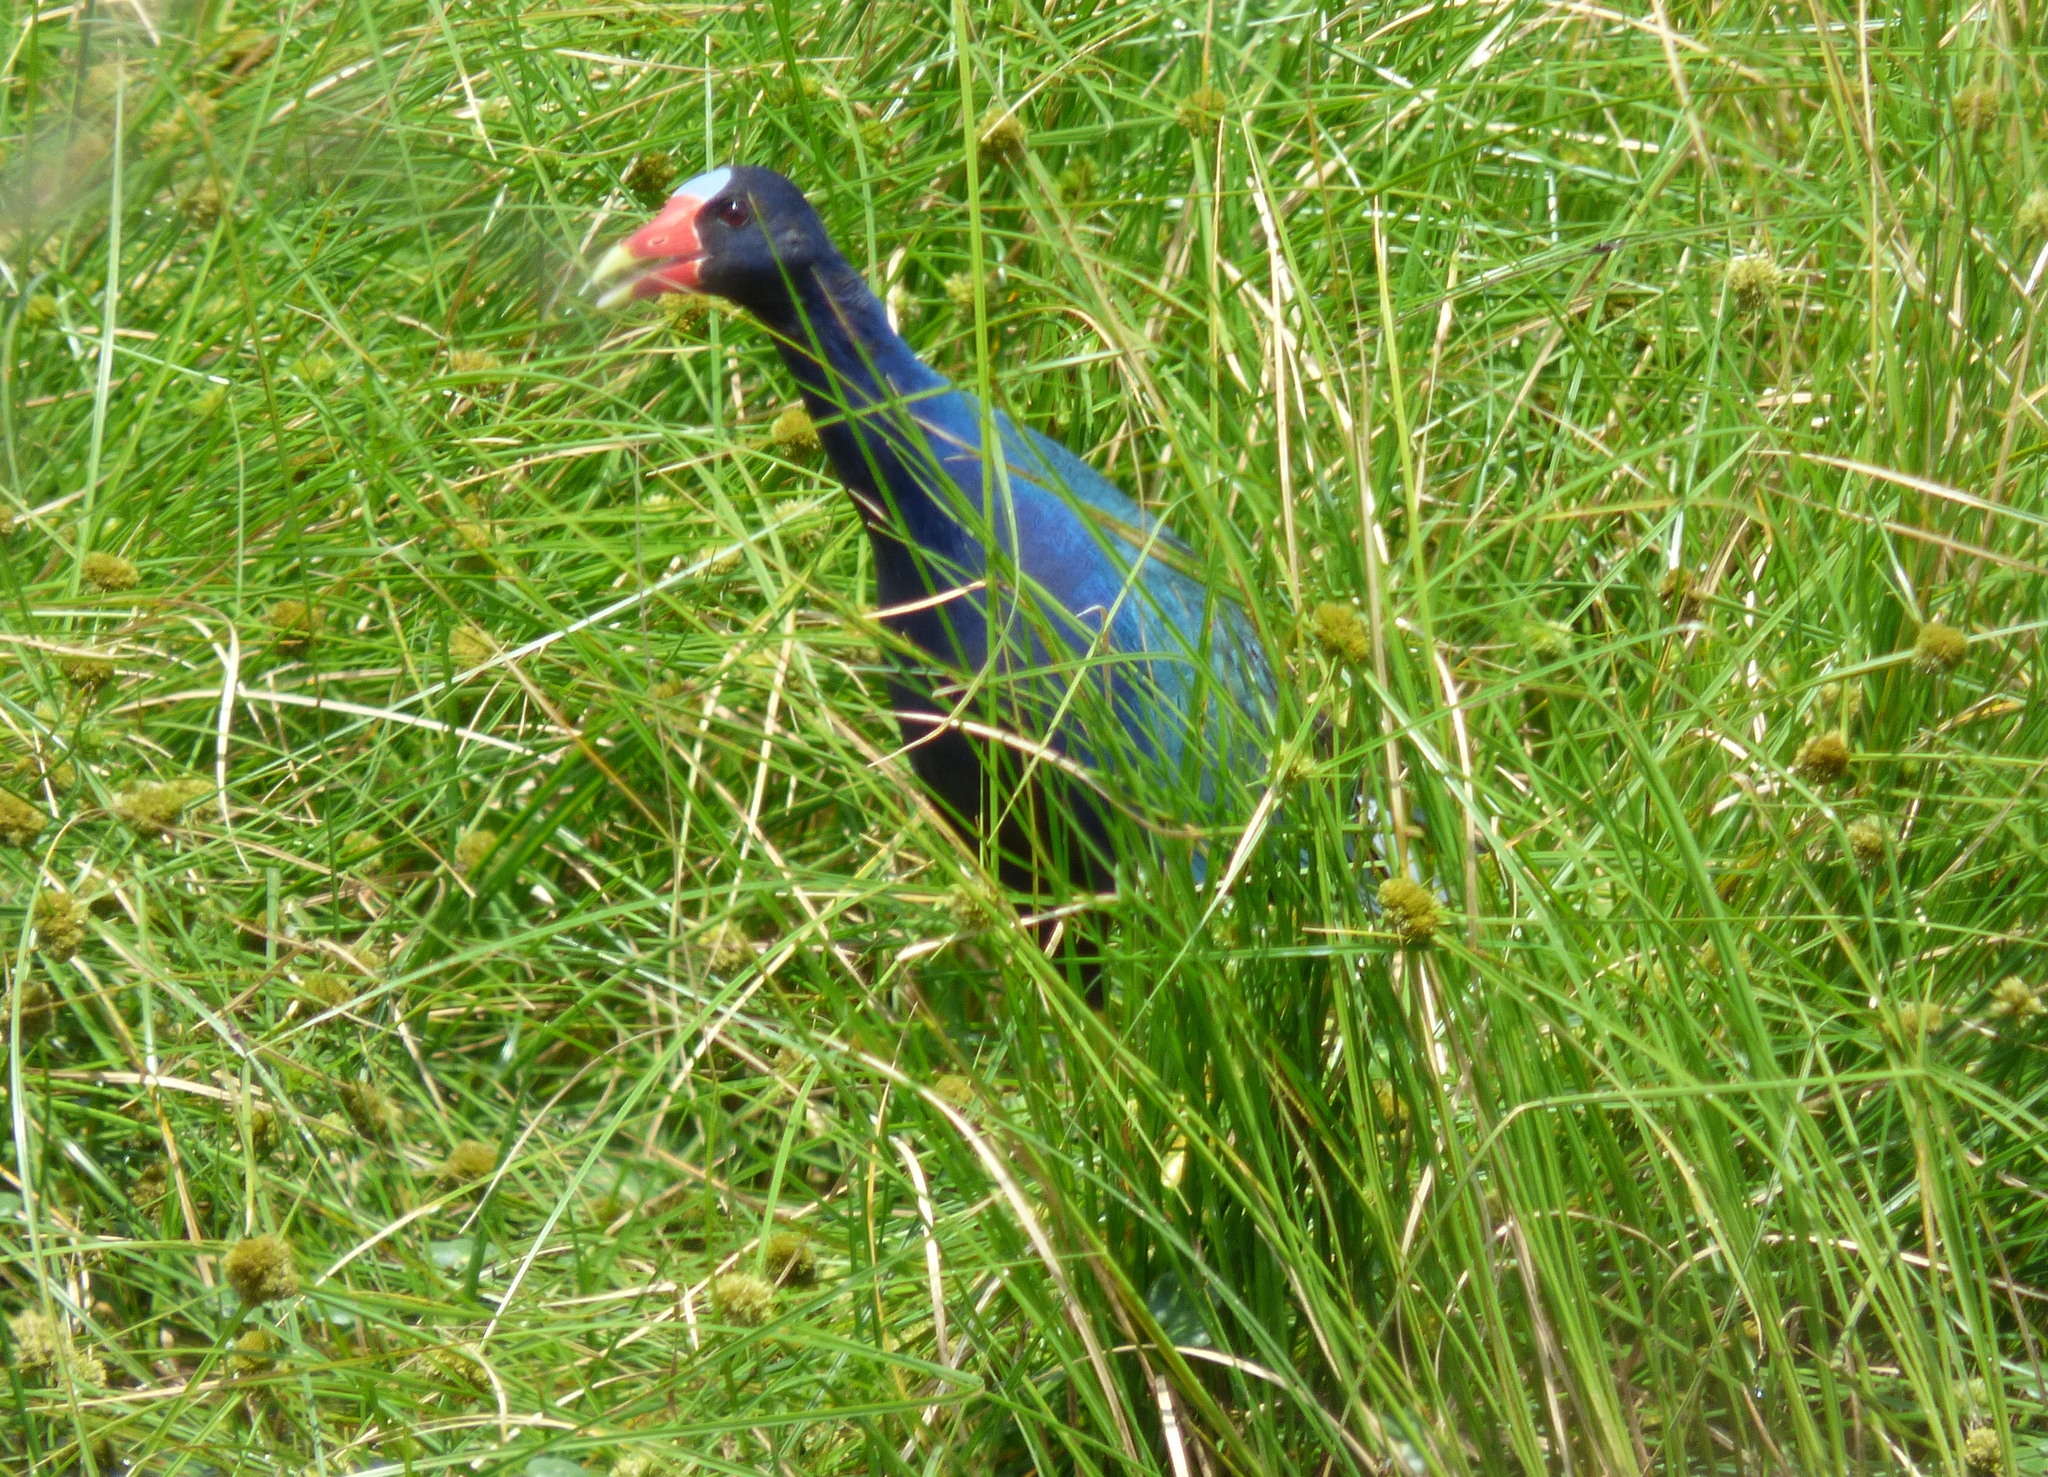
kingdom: Animalia
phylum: Chordata
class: Aves
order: Gruiformes
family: Rallidae
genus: Porphyrio
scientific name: Porphyrio martinica
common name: Purple gallinule
